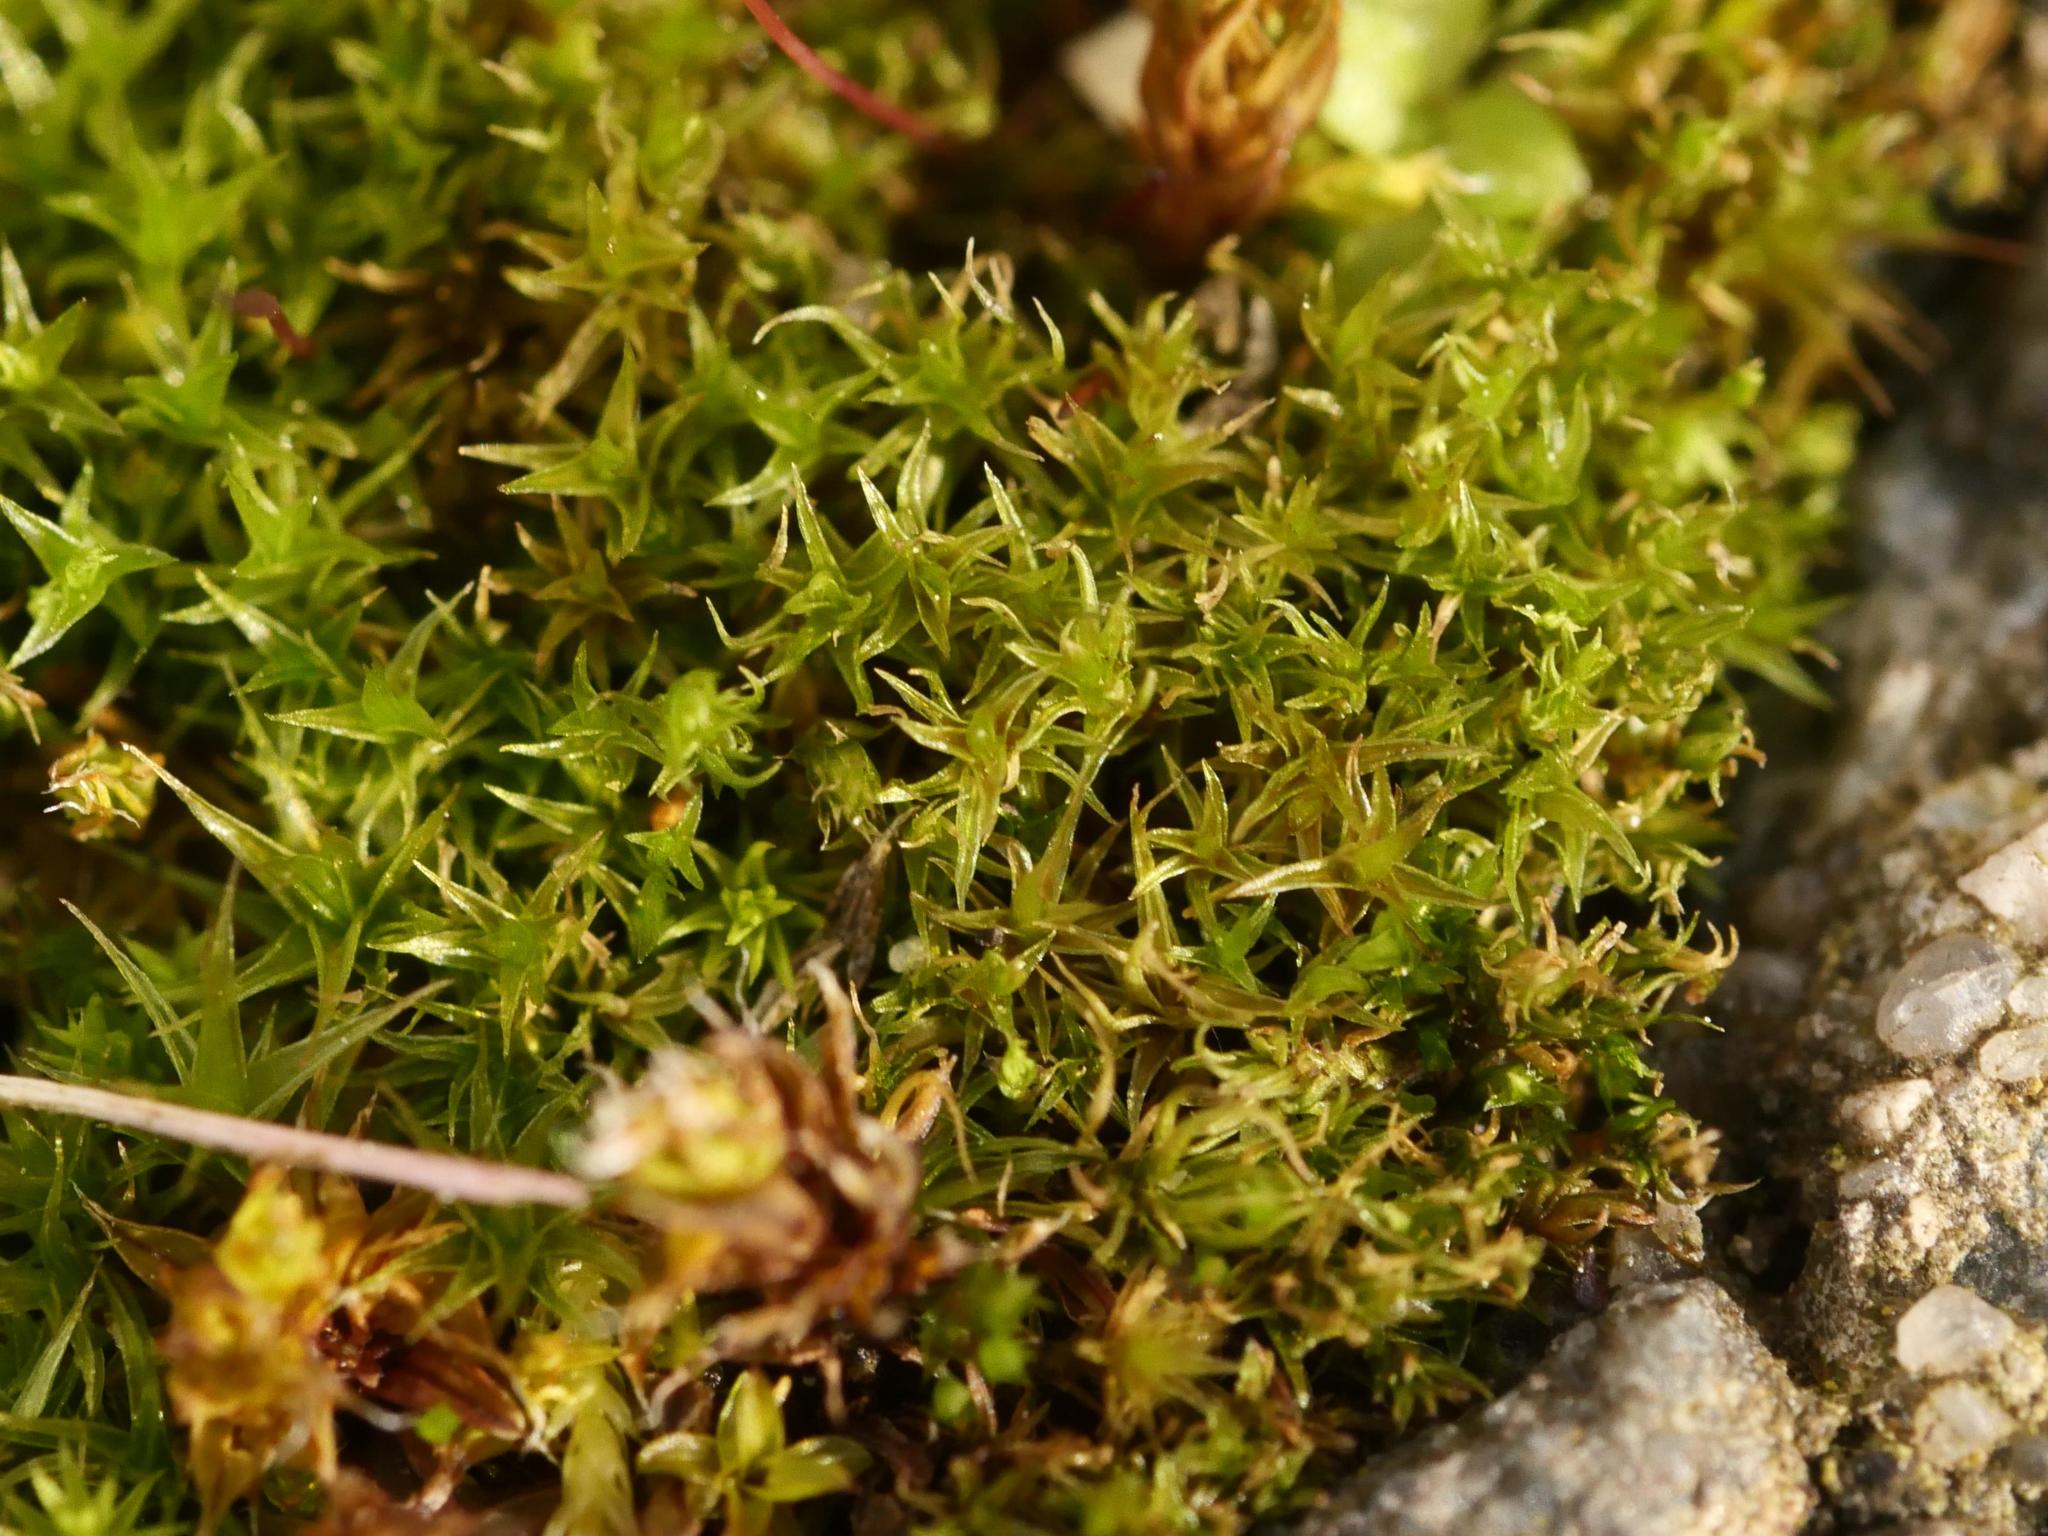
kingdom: Plantae
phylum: Bryophyta
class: Bryopsida
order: Dicranales
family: Ditrichaceae
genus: Ceratodon
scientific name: Ceratodon purpureus
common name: Redshank
